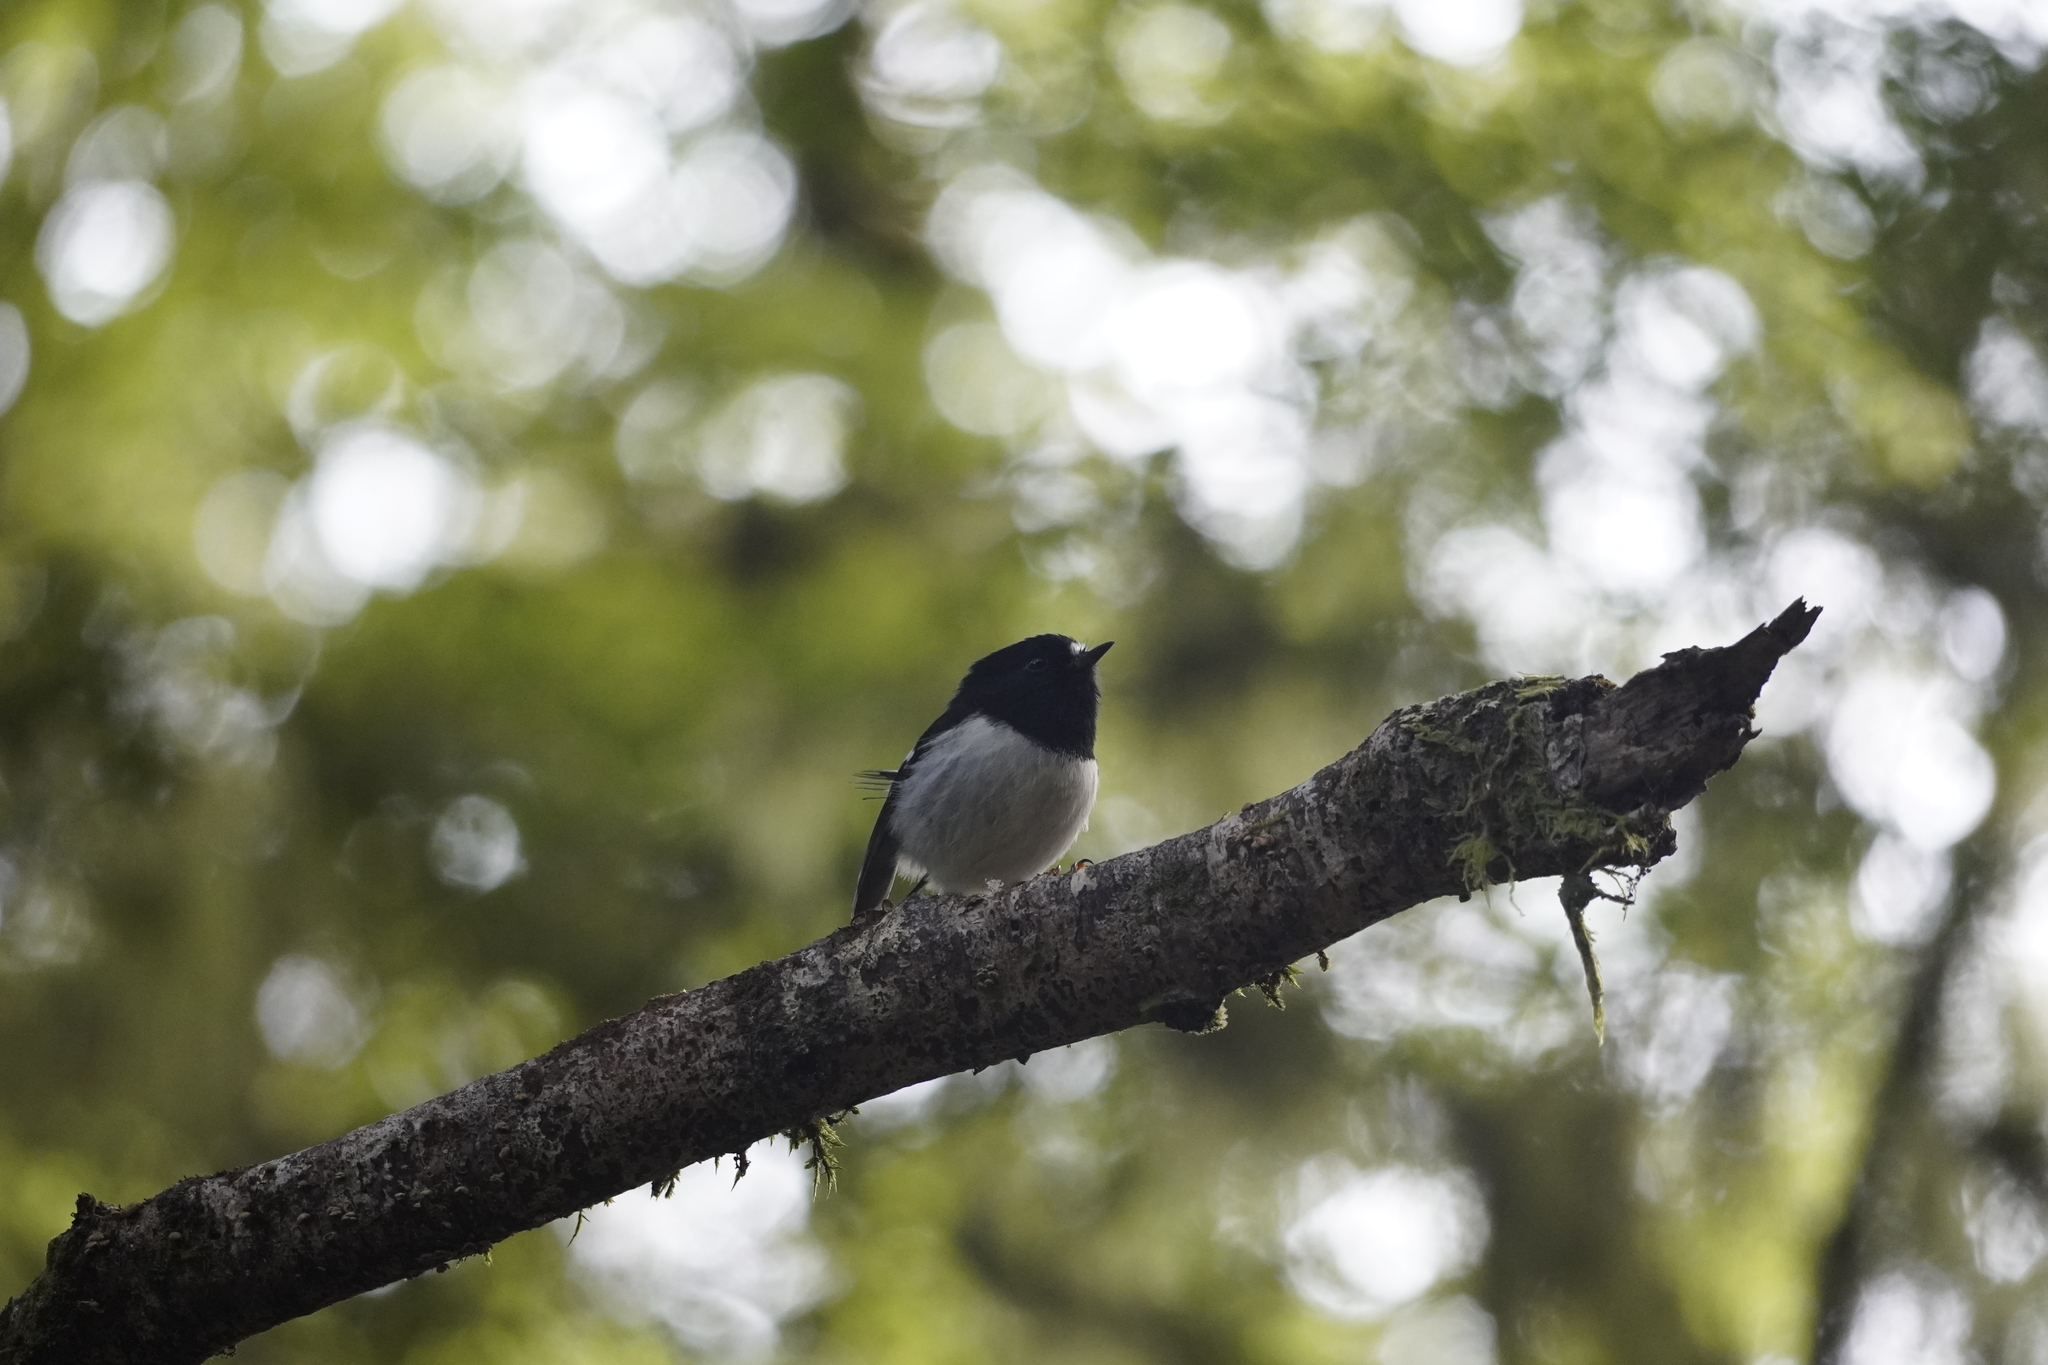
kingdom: Animalia
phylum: Chordata
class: Aves
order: Passeriformes
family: Petroicidae
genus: Petroica
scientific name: Petroica macrocephala
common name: Tomtit
